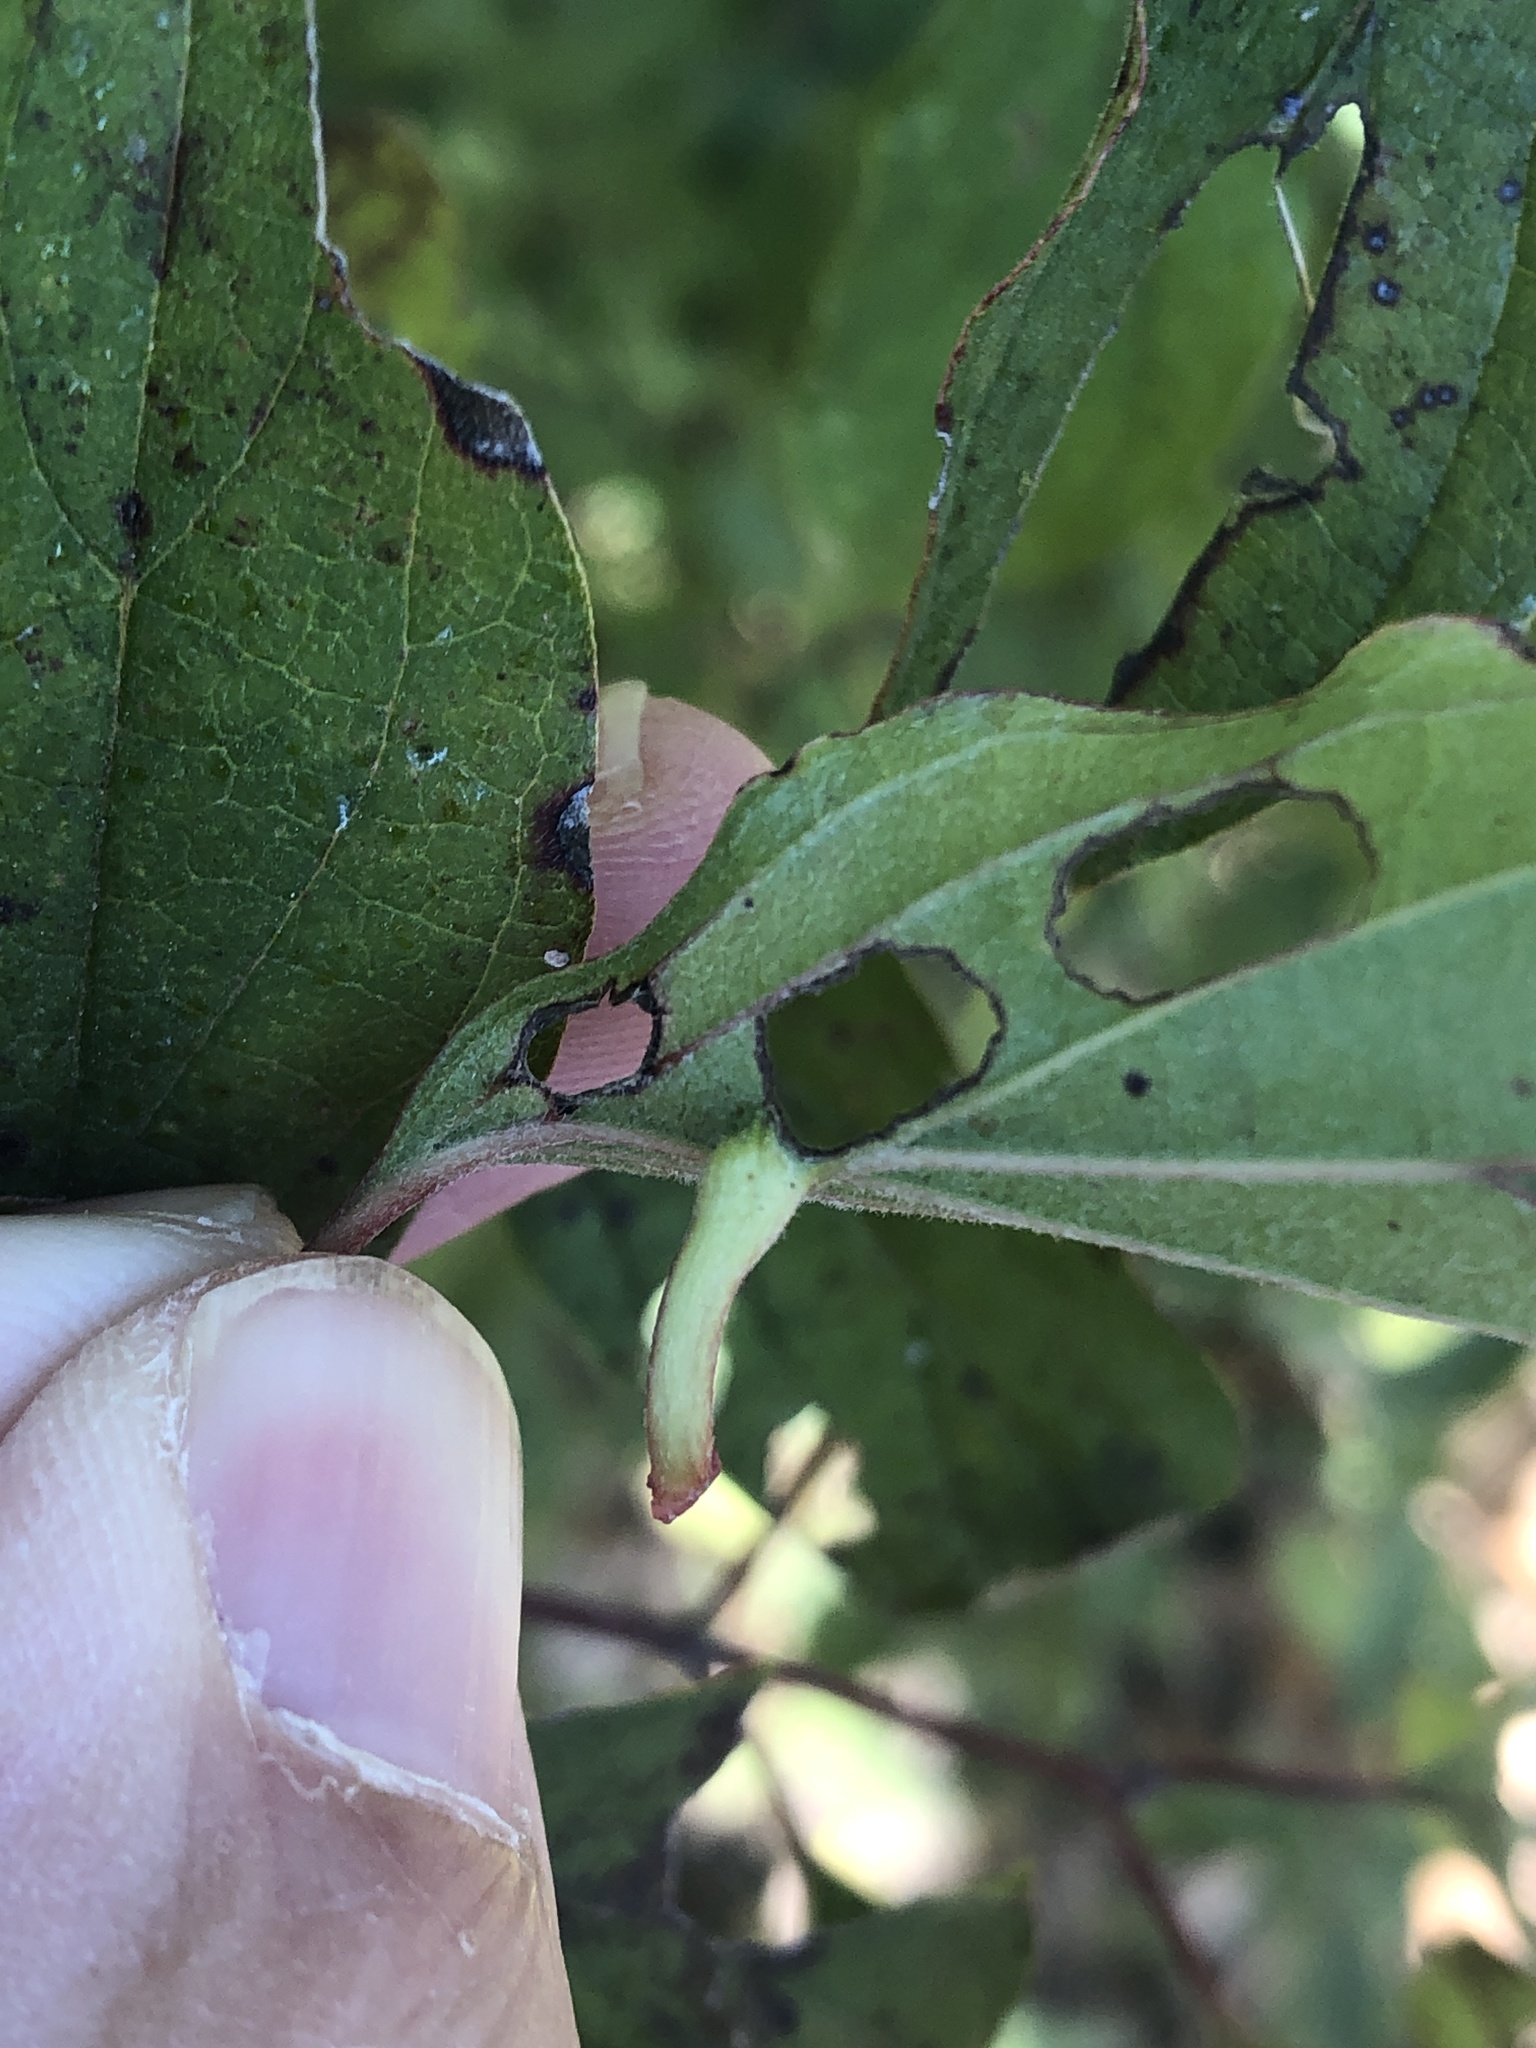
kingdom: Animalia
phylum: Arthropoda
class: Insecta
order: Diptera
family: Cecidomyiidae
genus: Dasineura
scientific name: Dasineura tuba
